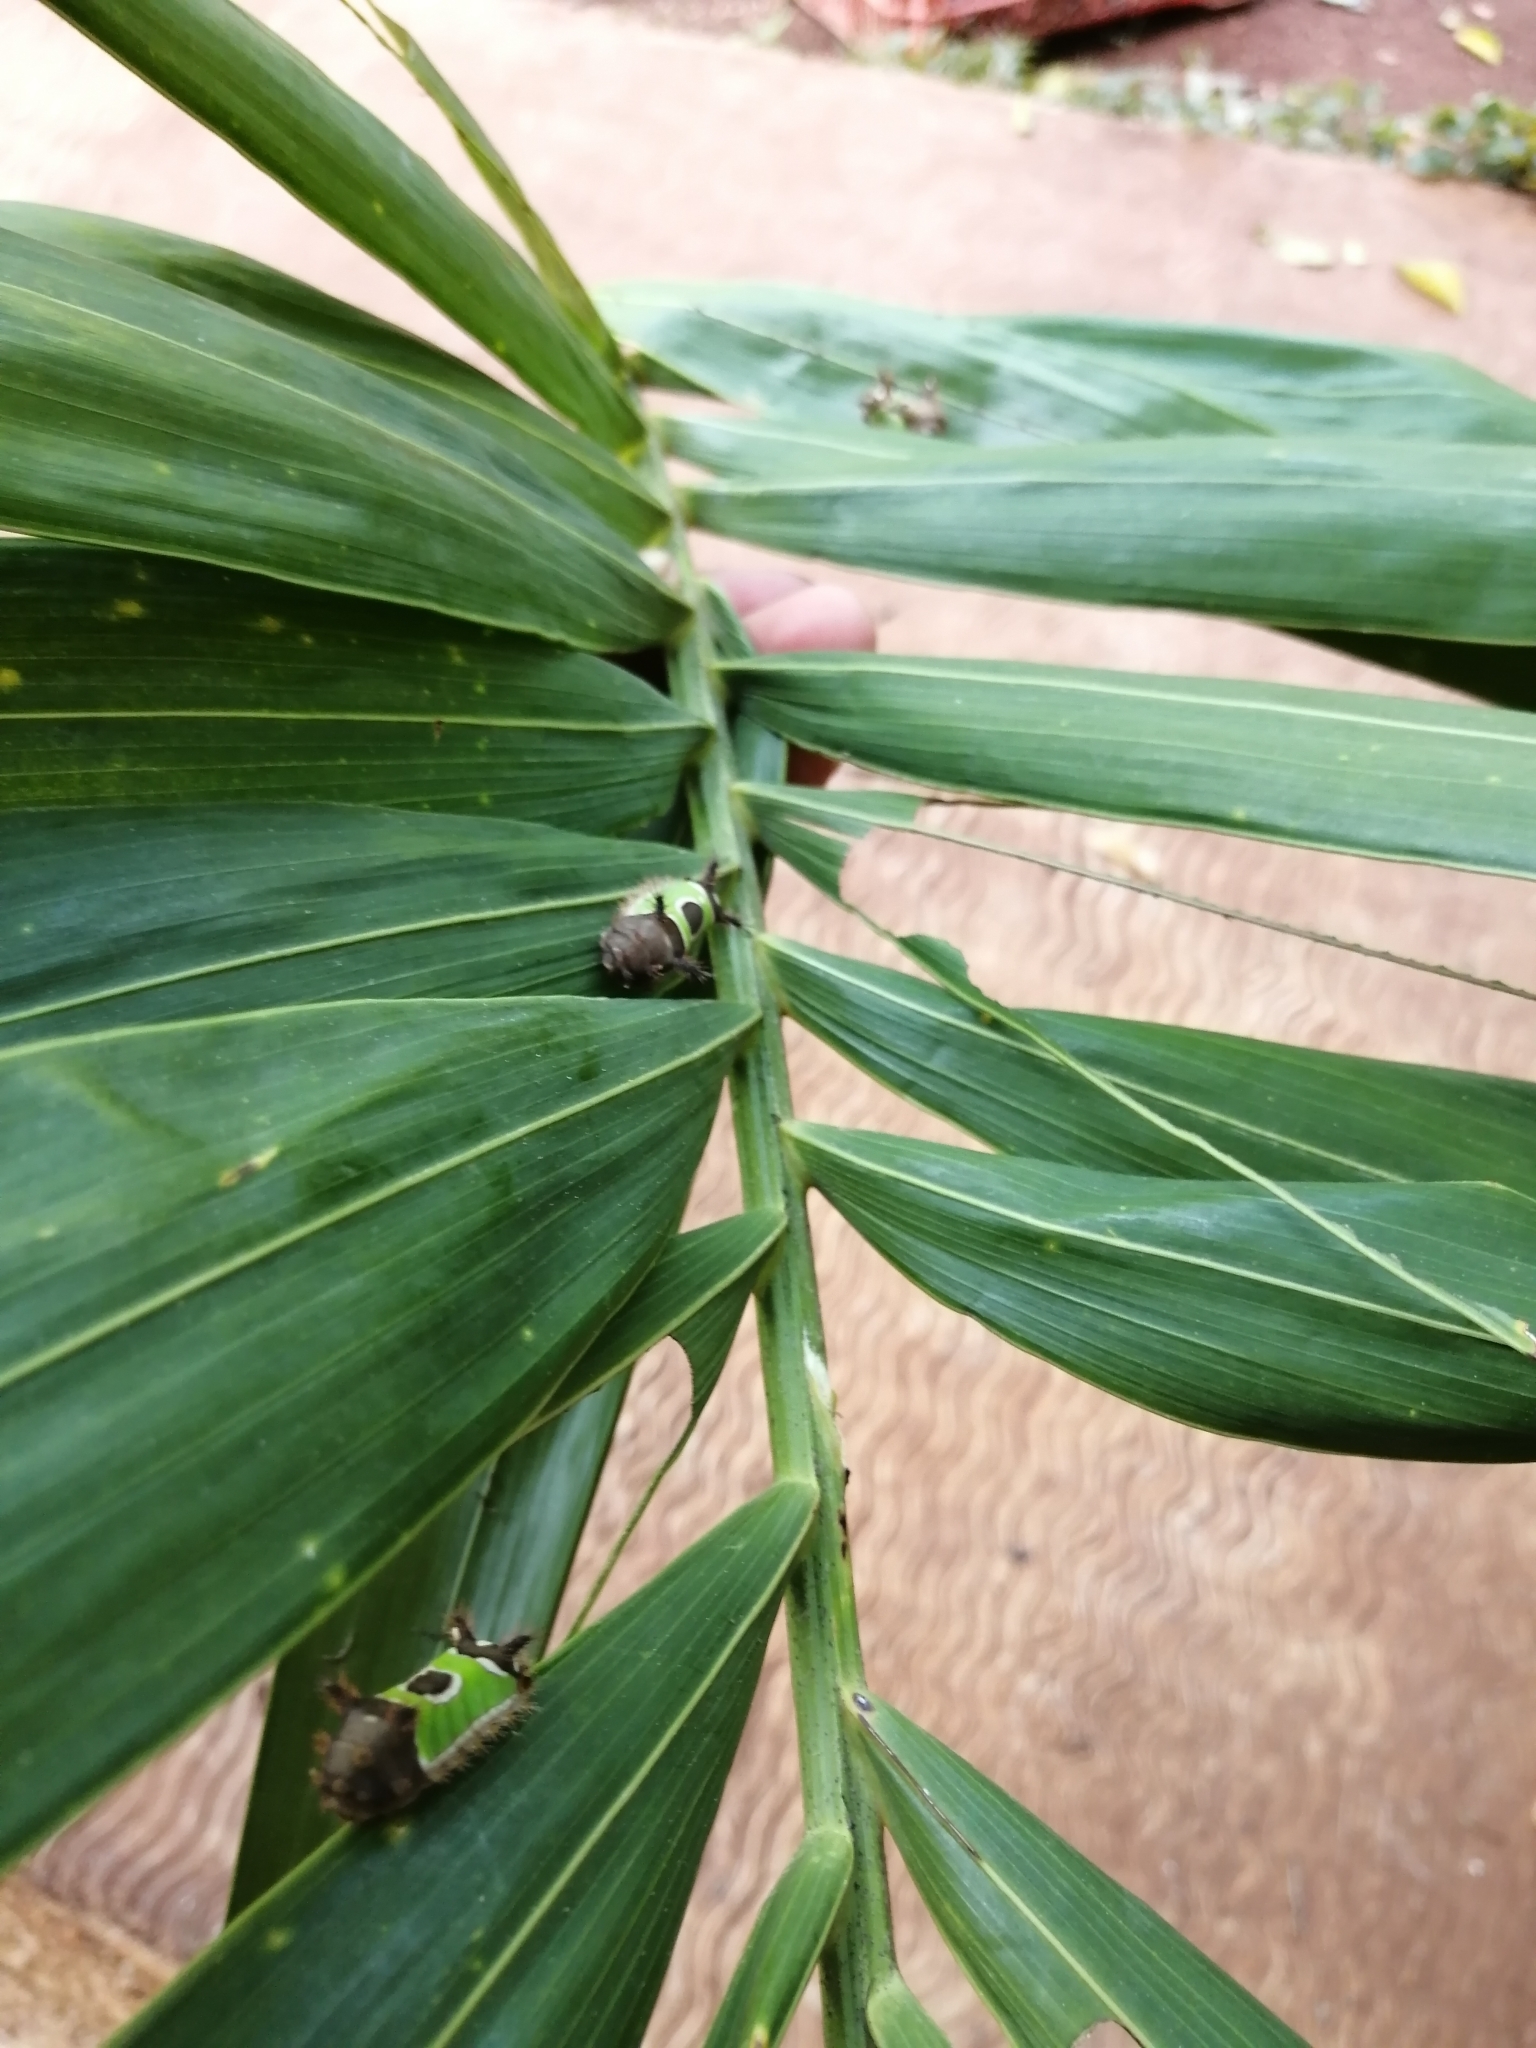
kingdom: Animalia
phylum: Arthropoda
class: Insecta
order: Lepidoptera
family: Limacodidae
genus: Acharia
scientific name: Acharia stimulea
